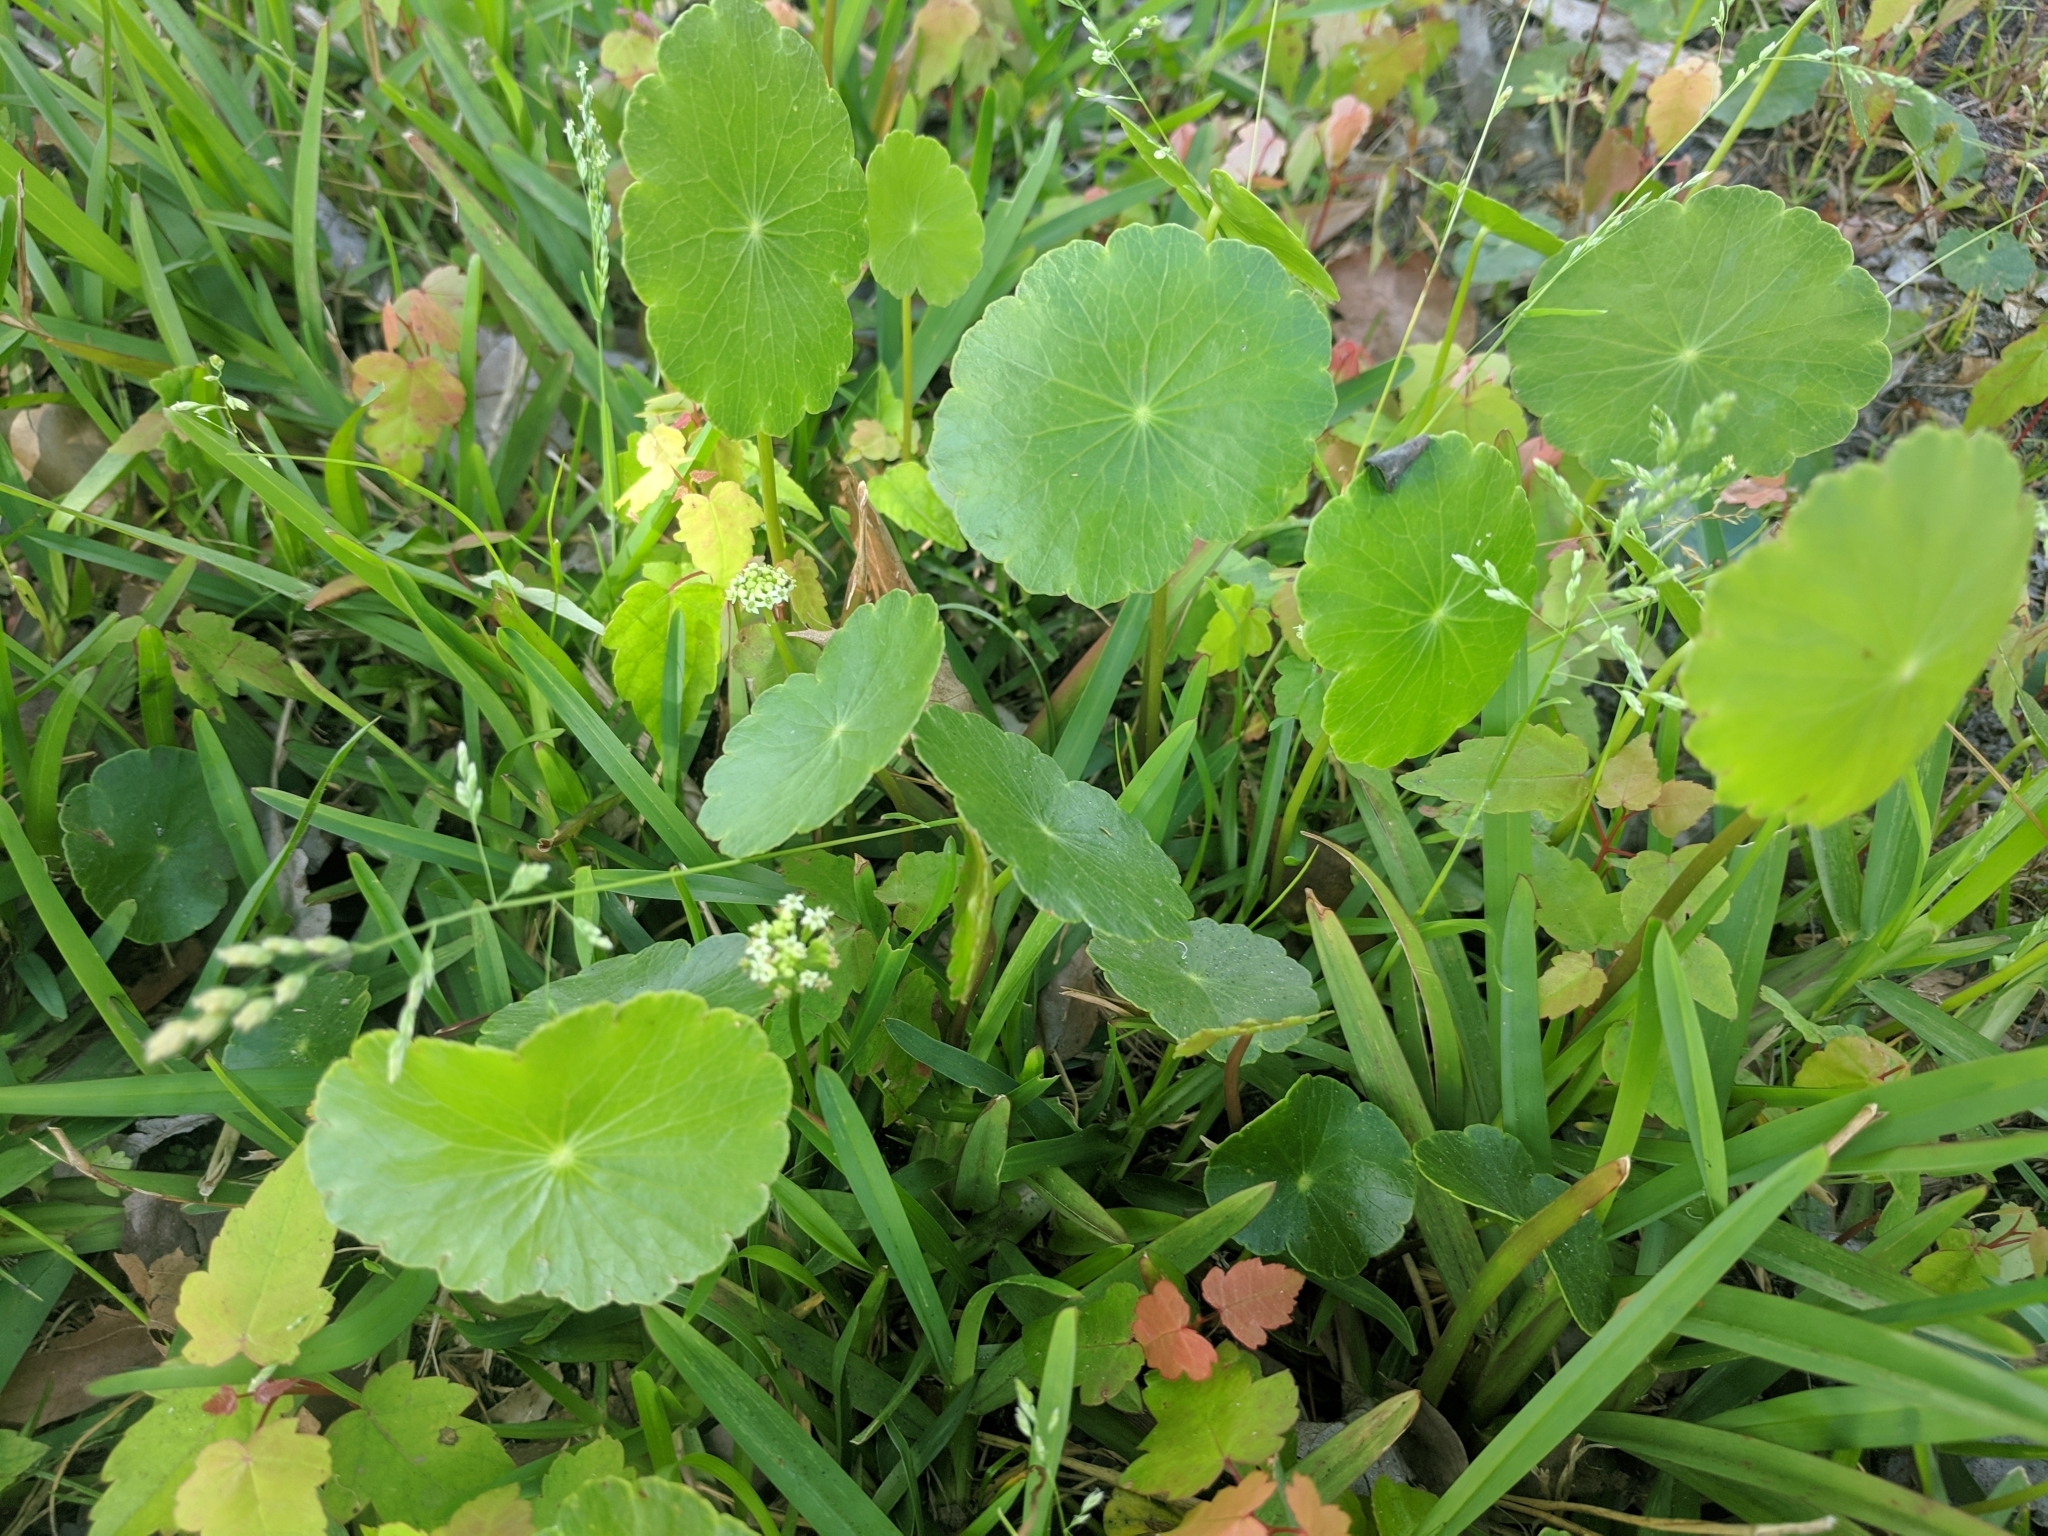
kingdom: Plantae
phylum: Tracheophyta
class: Magnoliopsida
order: Apiales
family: Araliaceae
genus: Hydrocotyle
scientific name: Hydrocotyle umbellata
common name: Water pennywort
